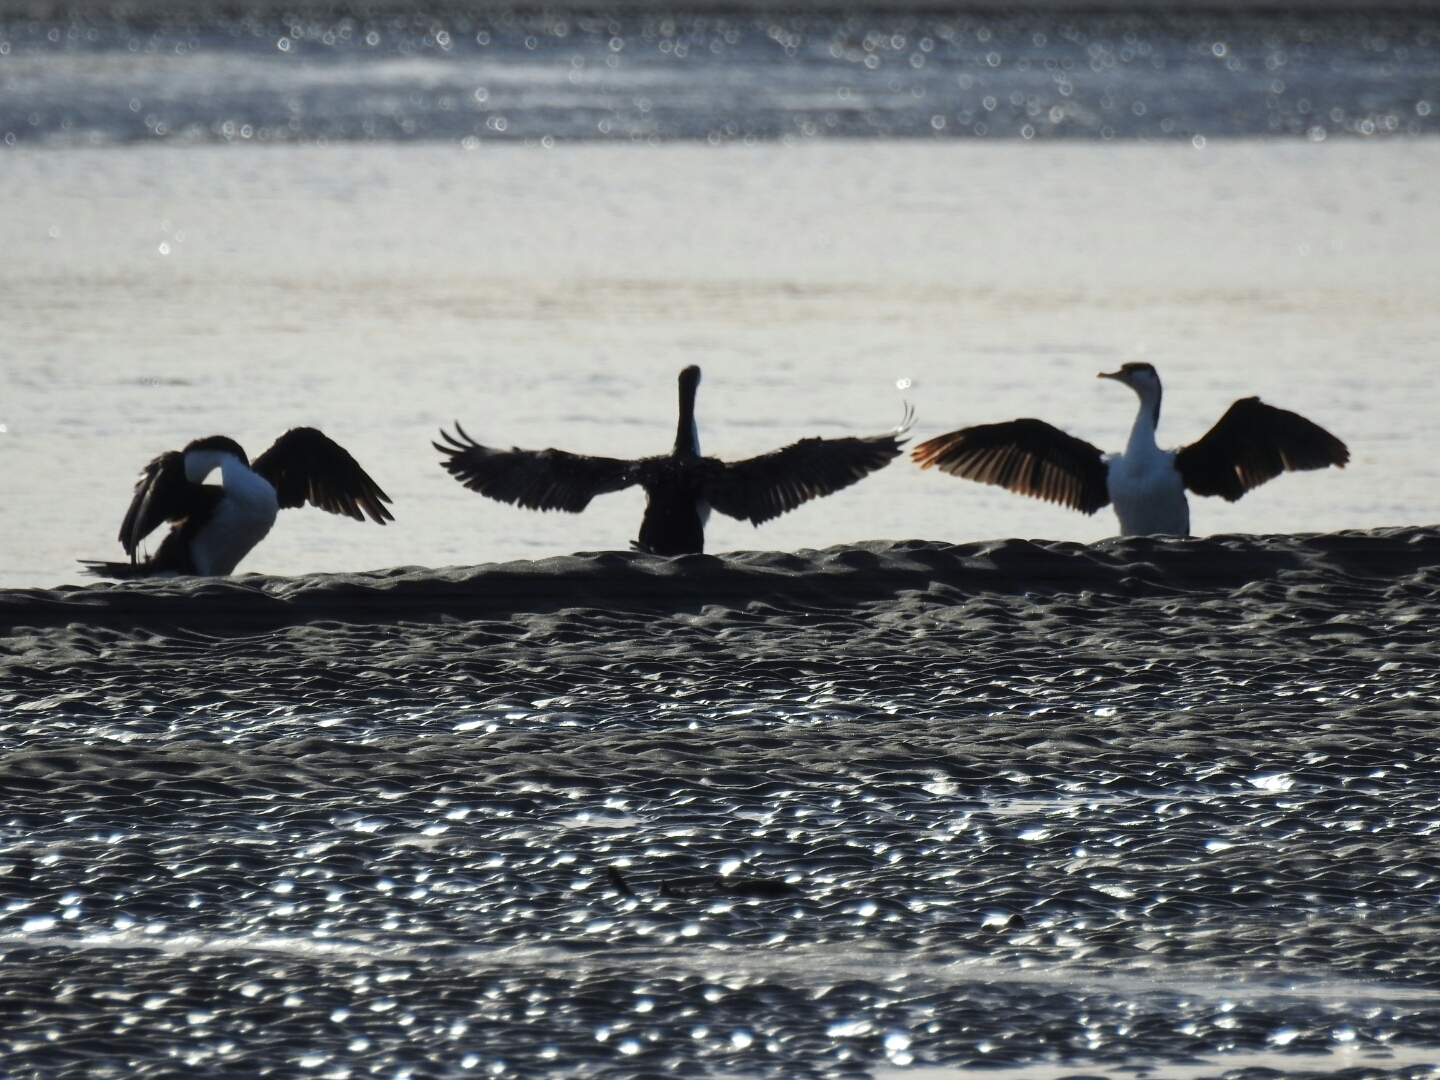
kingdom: Animalia
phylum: Chordata
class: Aves
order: Suliformes
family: Phalacrocoracidae
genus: Phalacrocorax
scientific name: Phalacrocorax varius
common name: Pied cormorant
